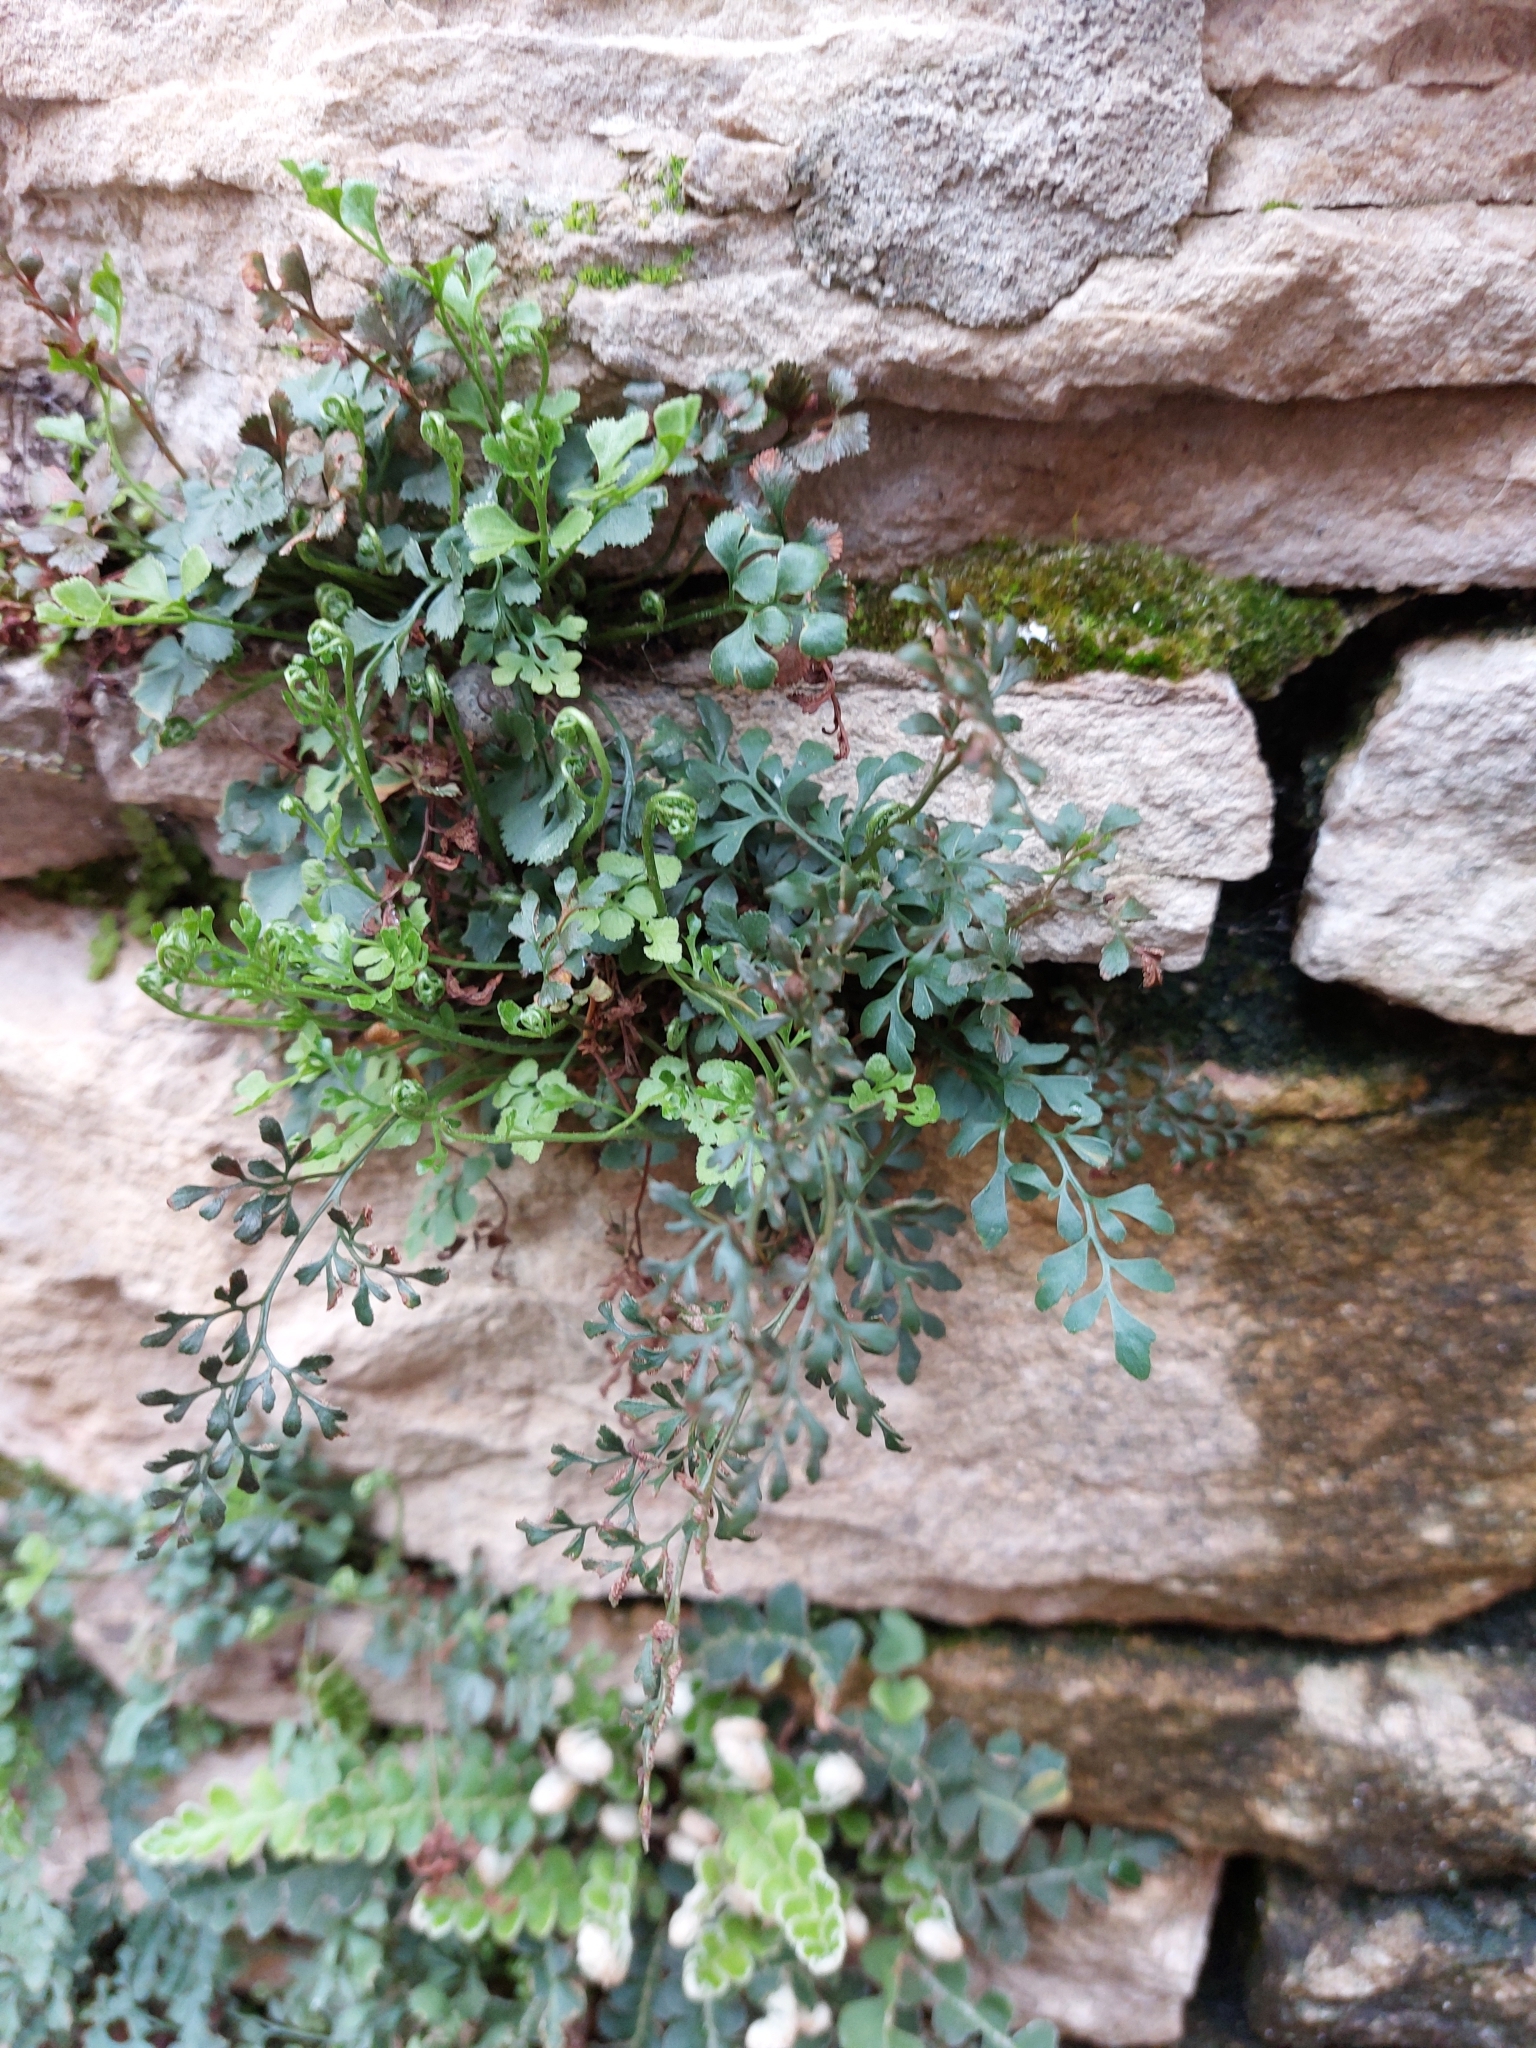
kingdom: Plantae
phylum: Tracheophyta
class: Polypodiopsida
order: Polypodiales
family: Aspleniaceae
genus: Asplenium
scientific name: Asplenium ruta-muraria
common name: Wall-rue
